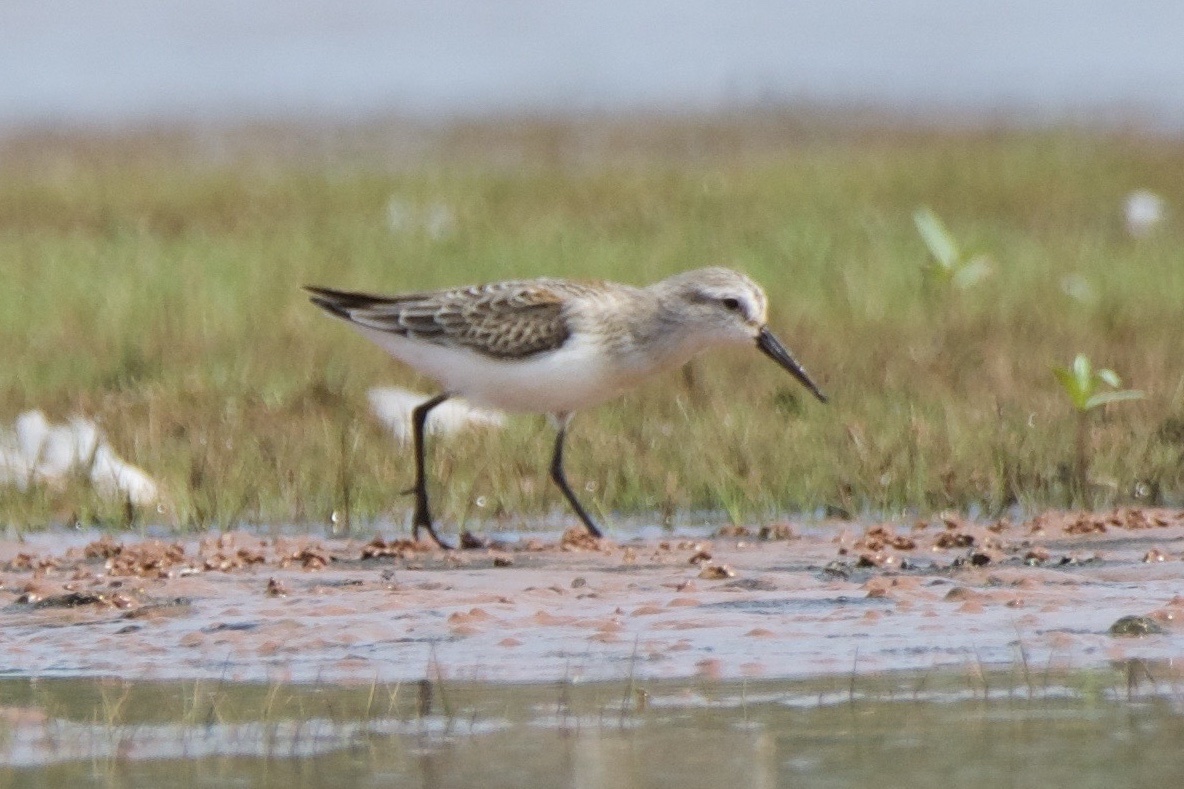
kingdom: Animalia
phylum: Chordata
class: Aves
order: Charadriiformes
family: Scolopacidae
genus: Calidris
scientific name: Calidris mauri
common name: Western sandpiper
